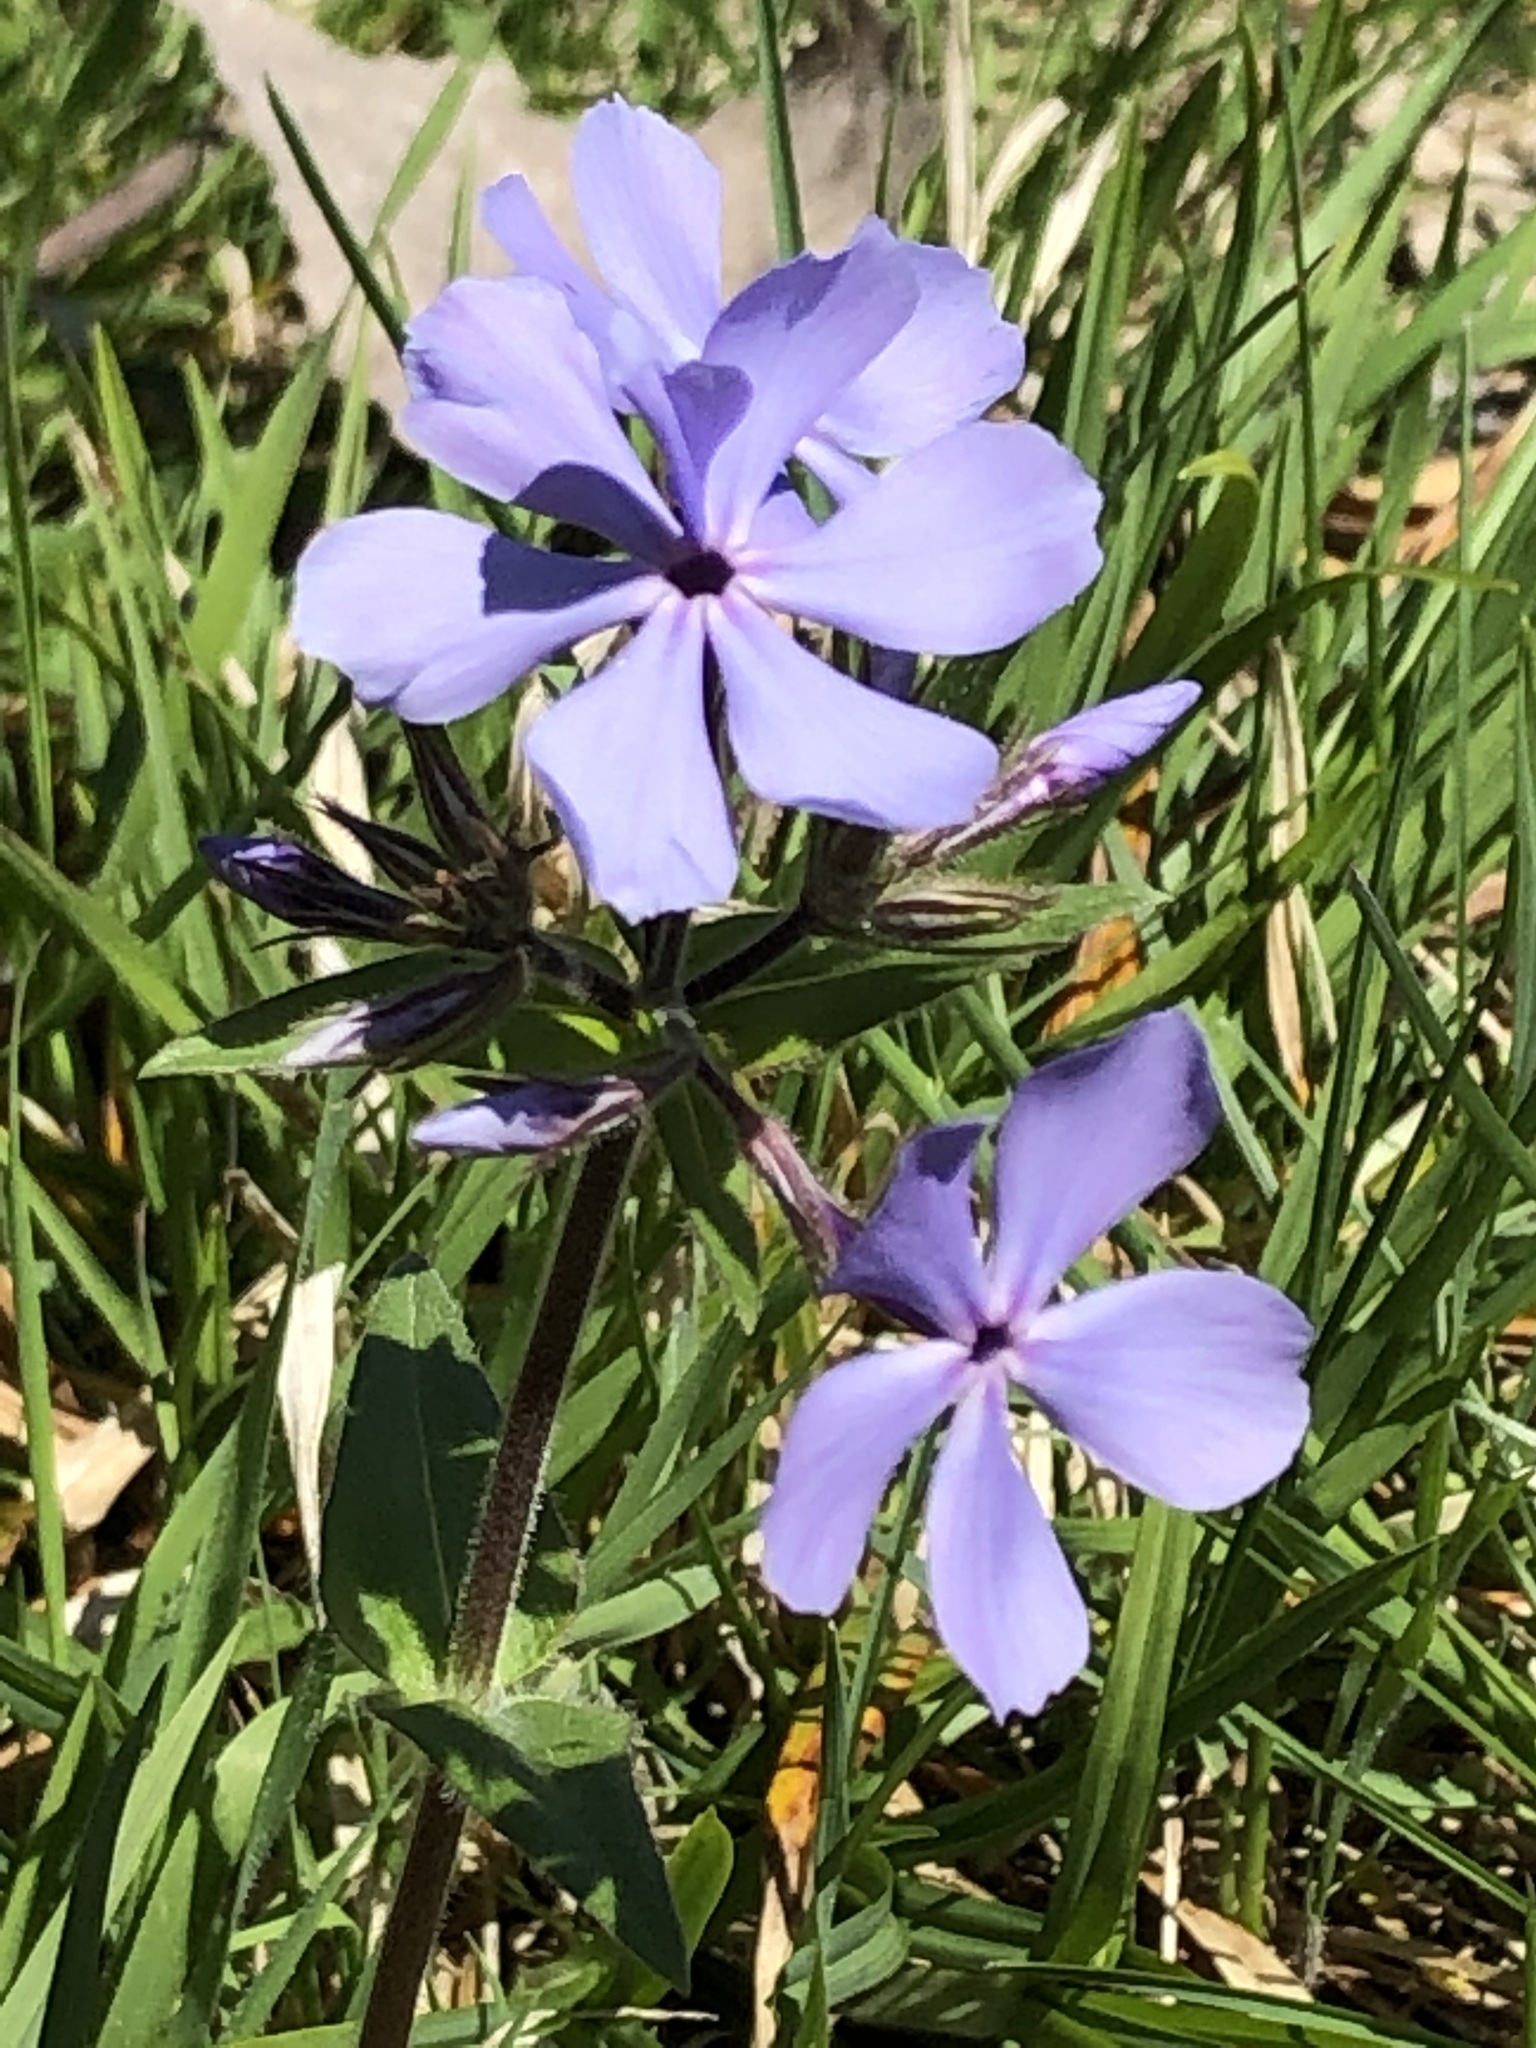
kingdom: Plantae
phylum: Tracheophyta
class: Magnoliopsida
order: Ericales
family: Polemoniaceae
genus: Phlox
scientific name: Phlox divaricata
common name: Blue phlox
